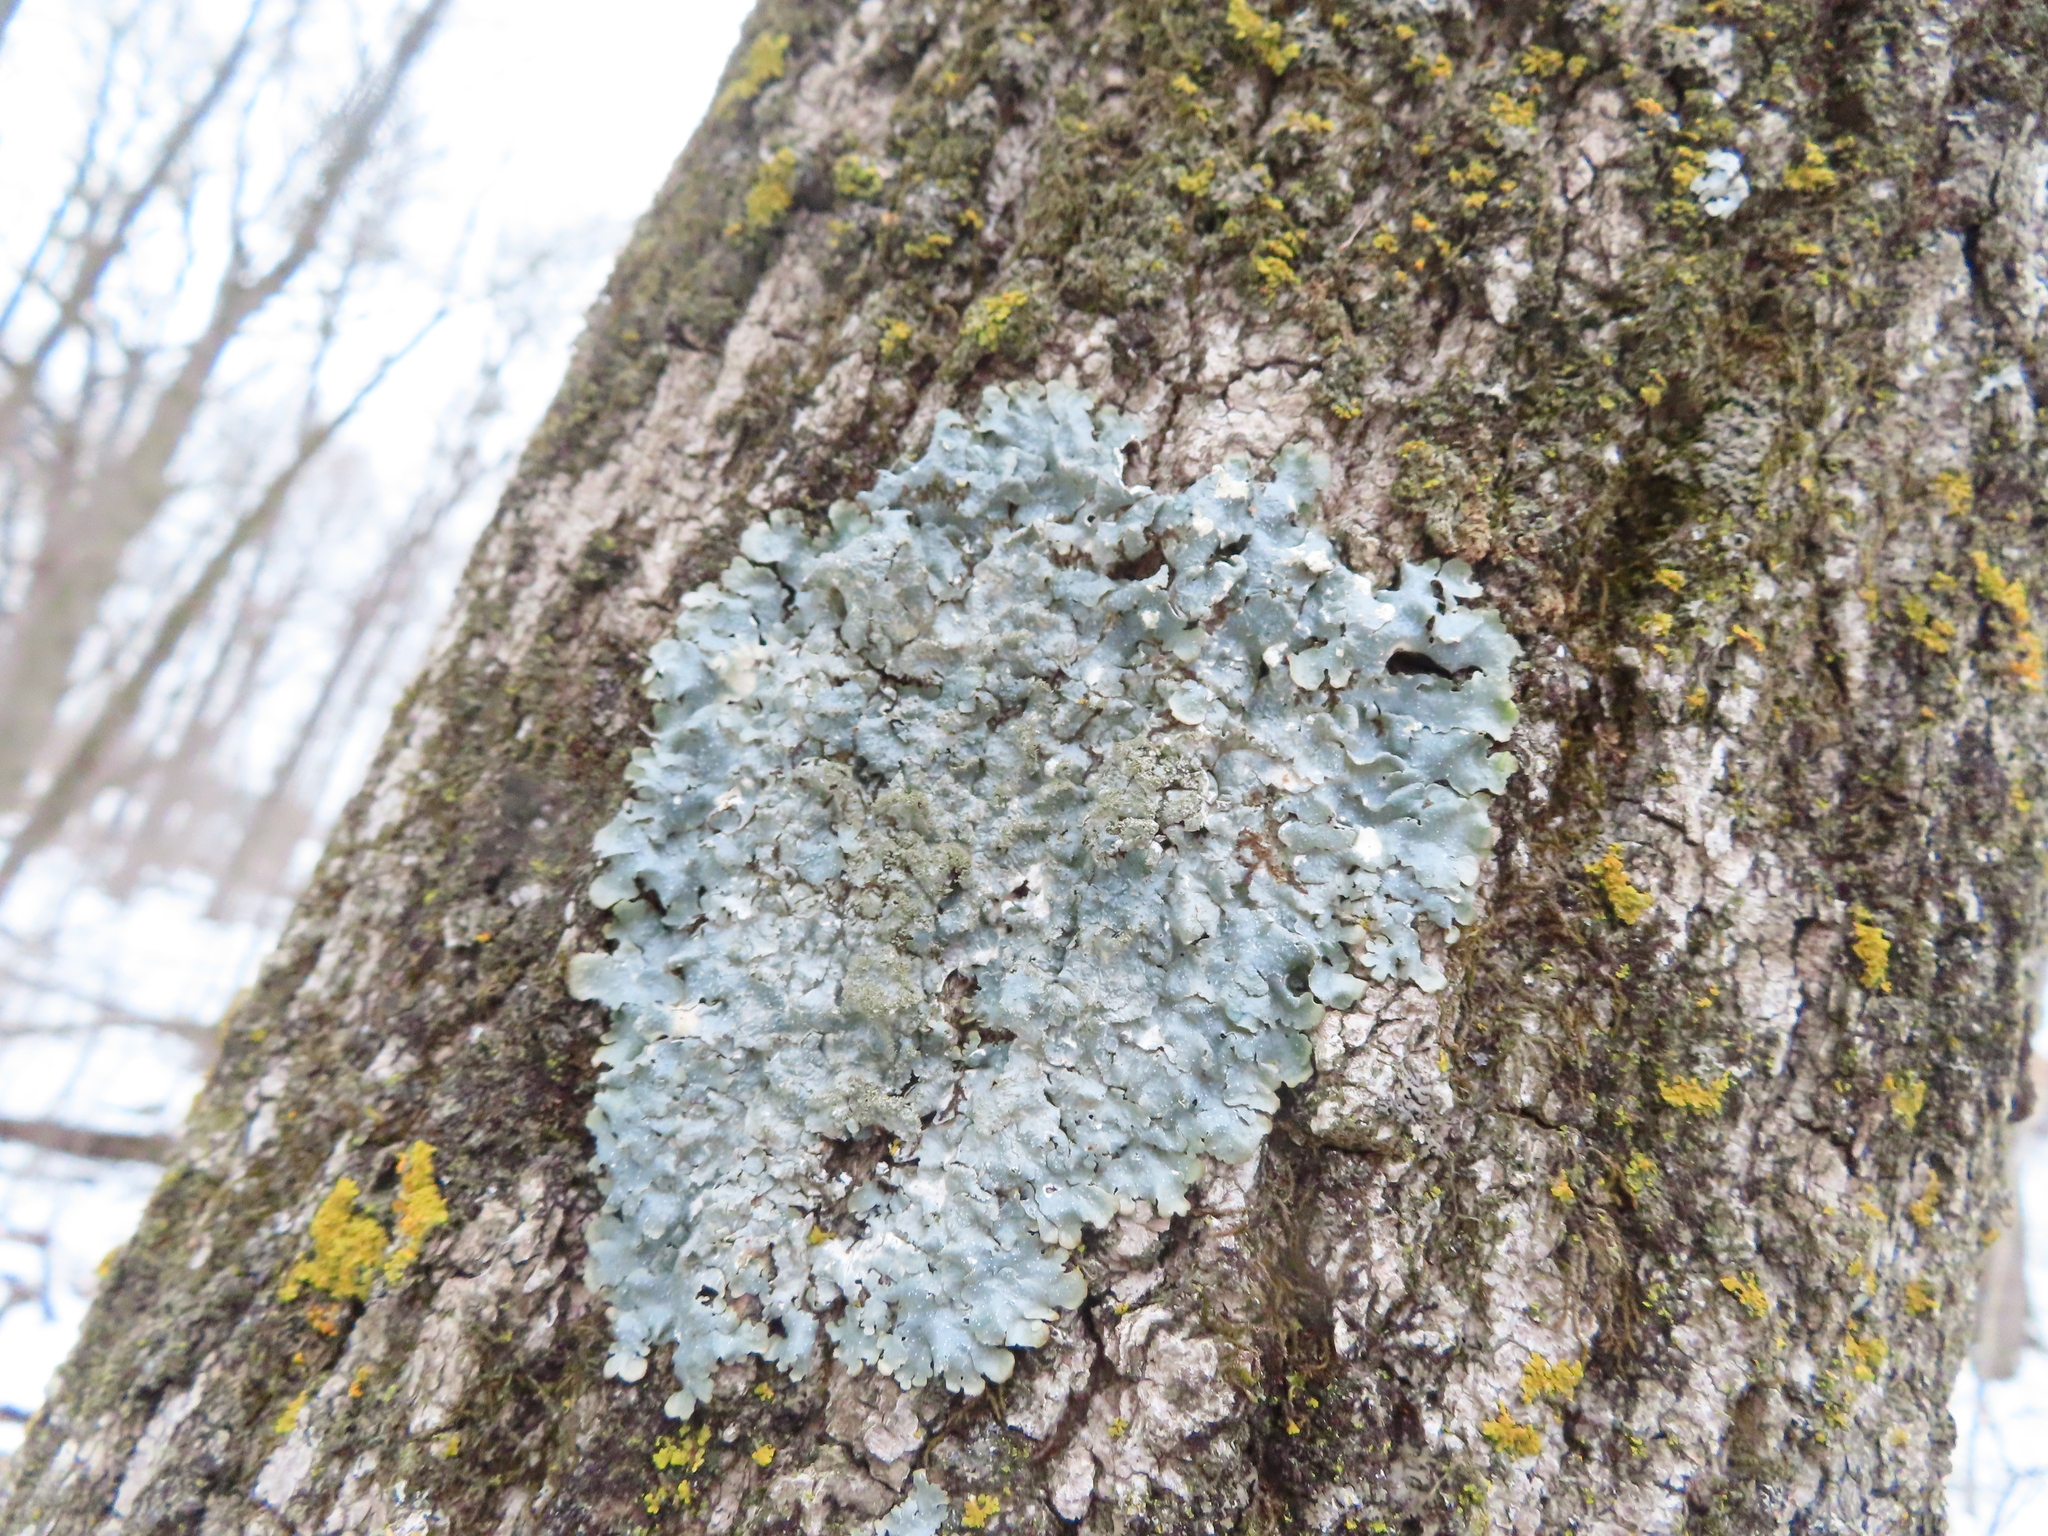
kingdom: Fungi
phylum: Ascomycota
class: Lecanoromycetes
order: Lecanorales
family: Parmeliaceae
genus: Punctelia
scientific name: Punctelia rudecta
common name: Rough speckled shield lichen
